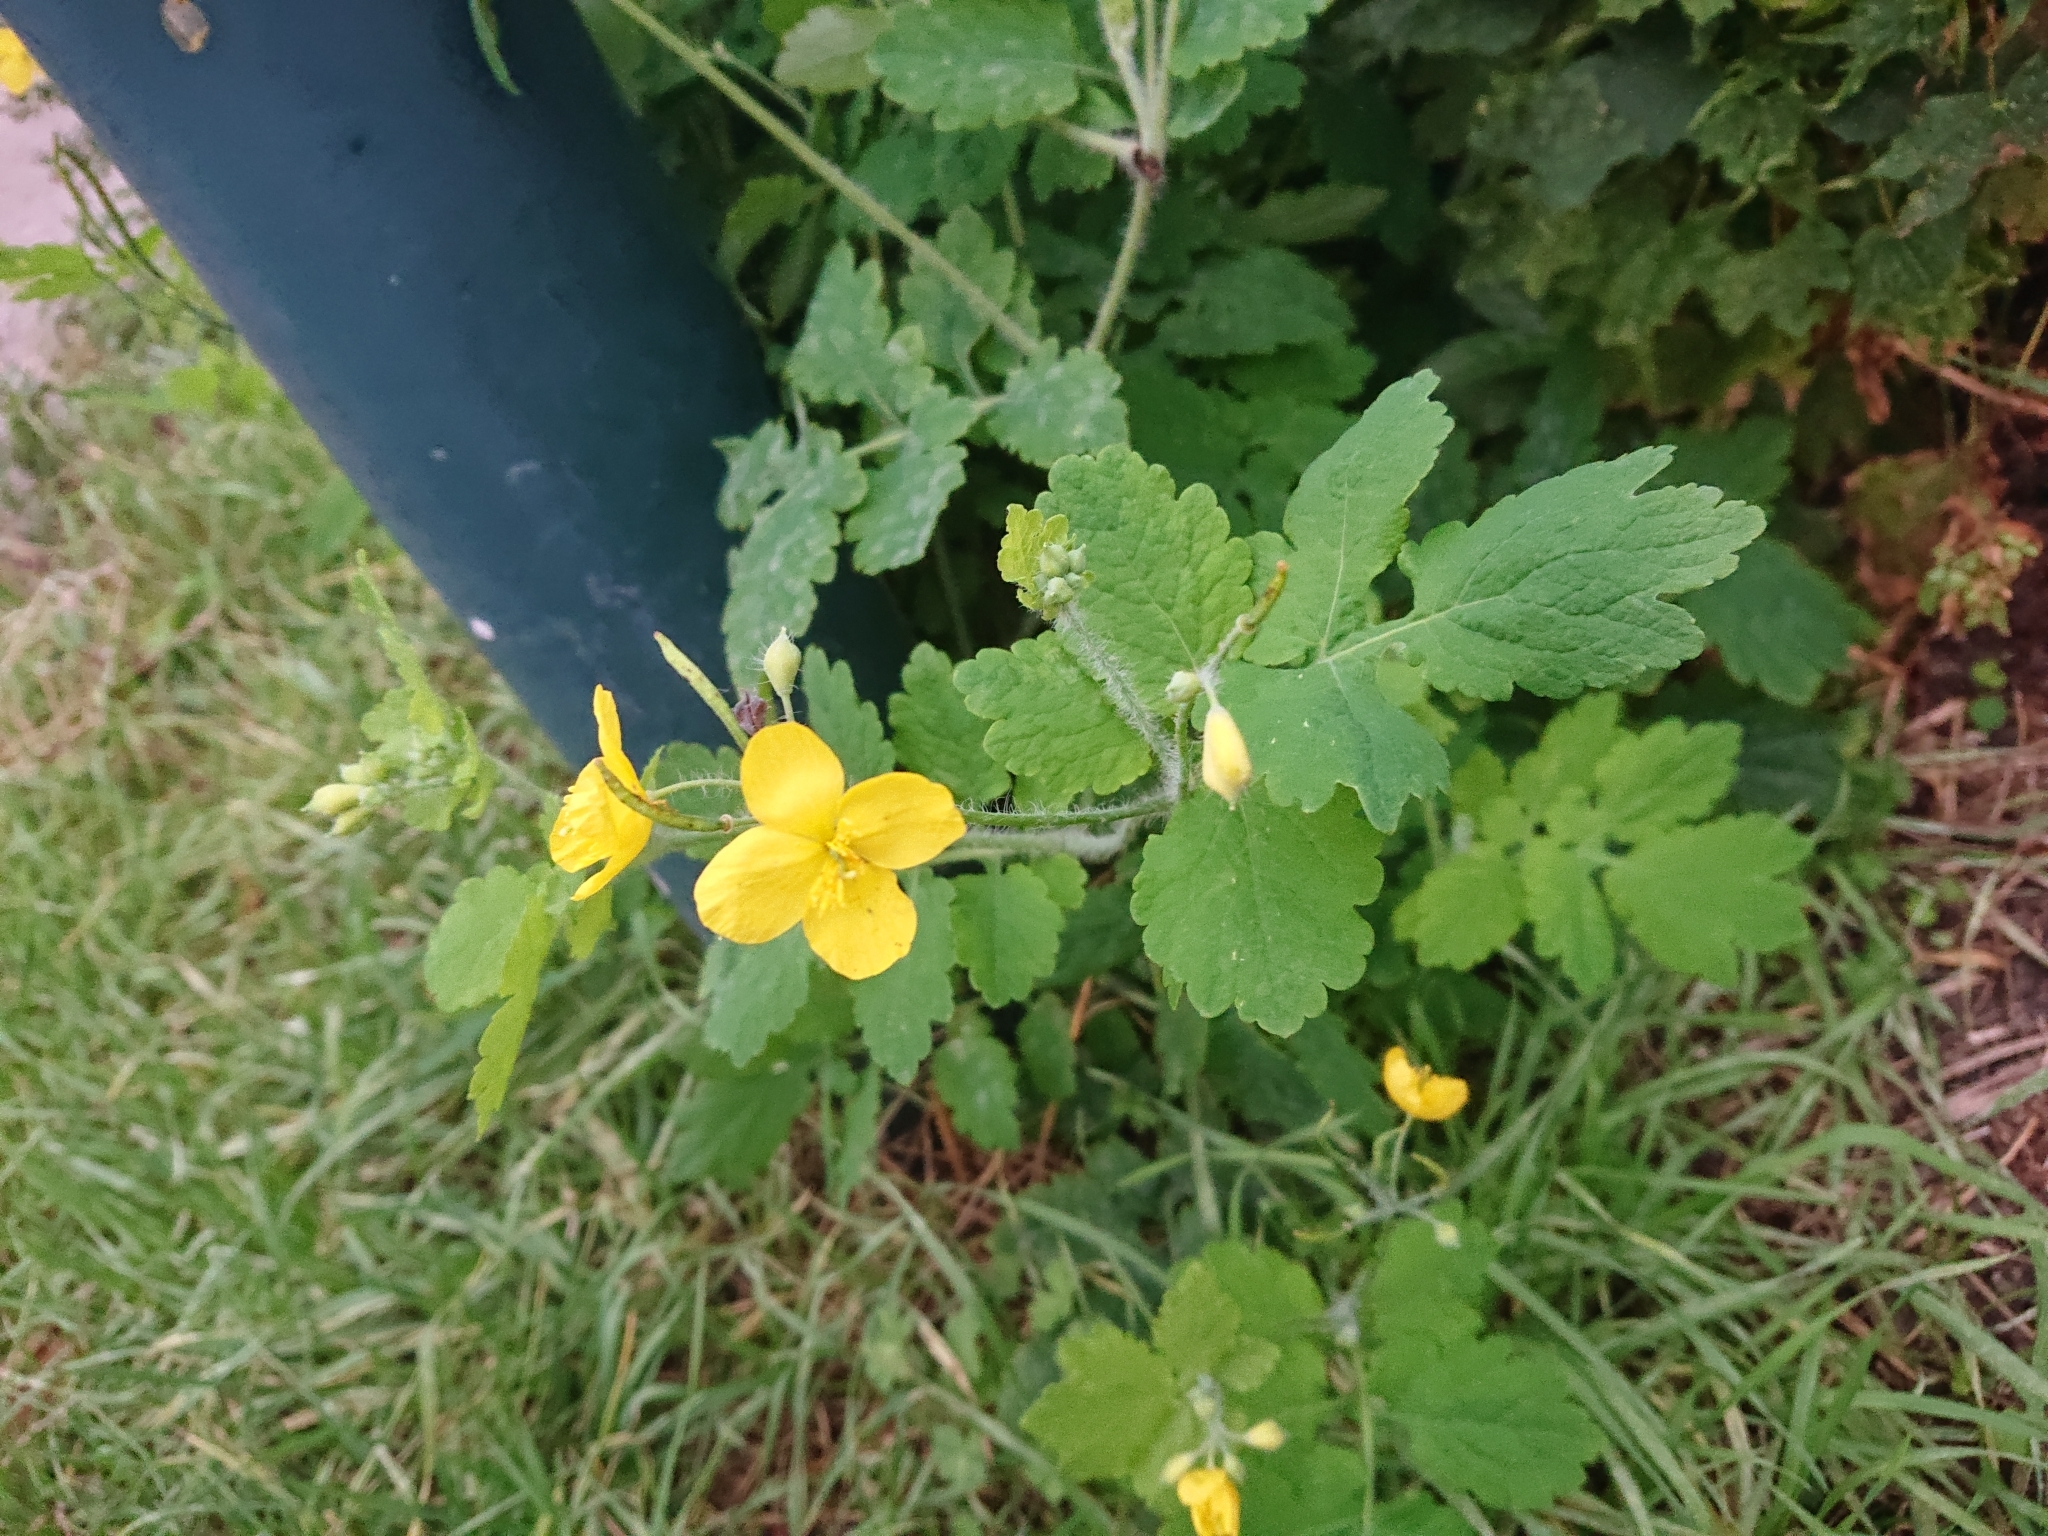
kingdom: Plantae
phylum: Tracheophyta
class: Magnoliopsida
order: Ranunculales
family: Papaveraceae
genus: Chelidonium
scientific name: Chelidonium majus
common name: Greater celandine
